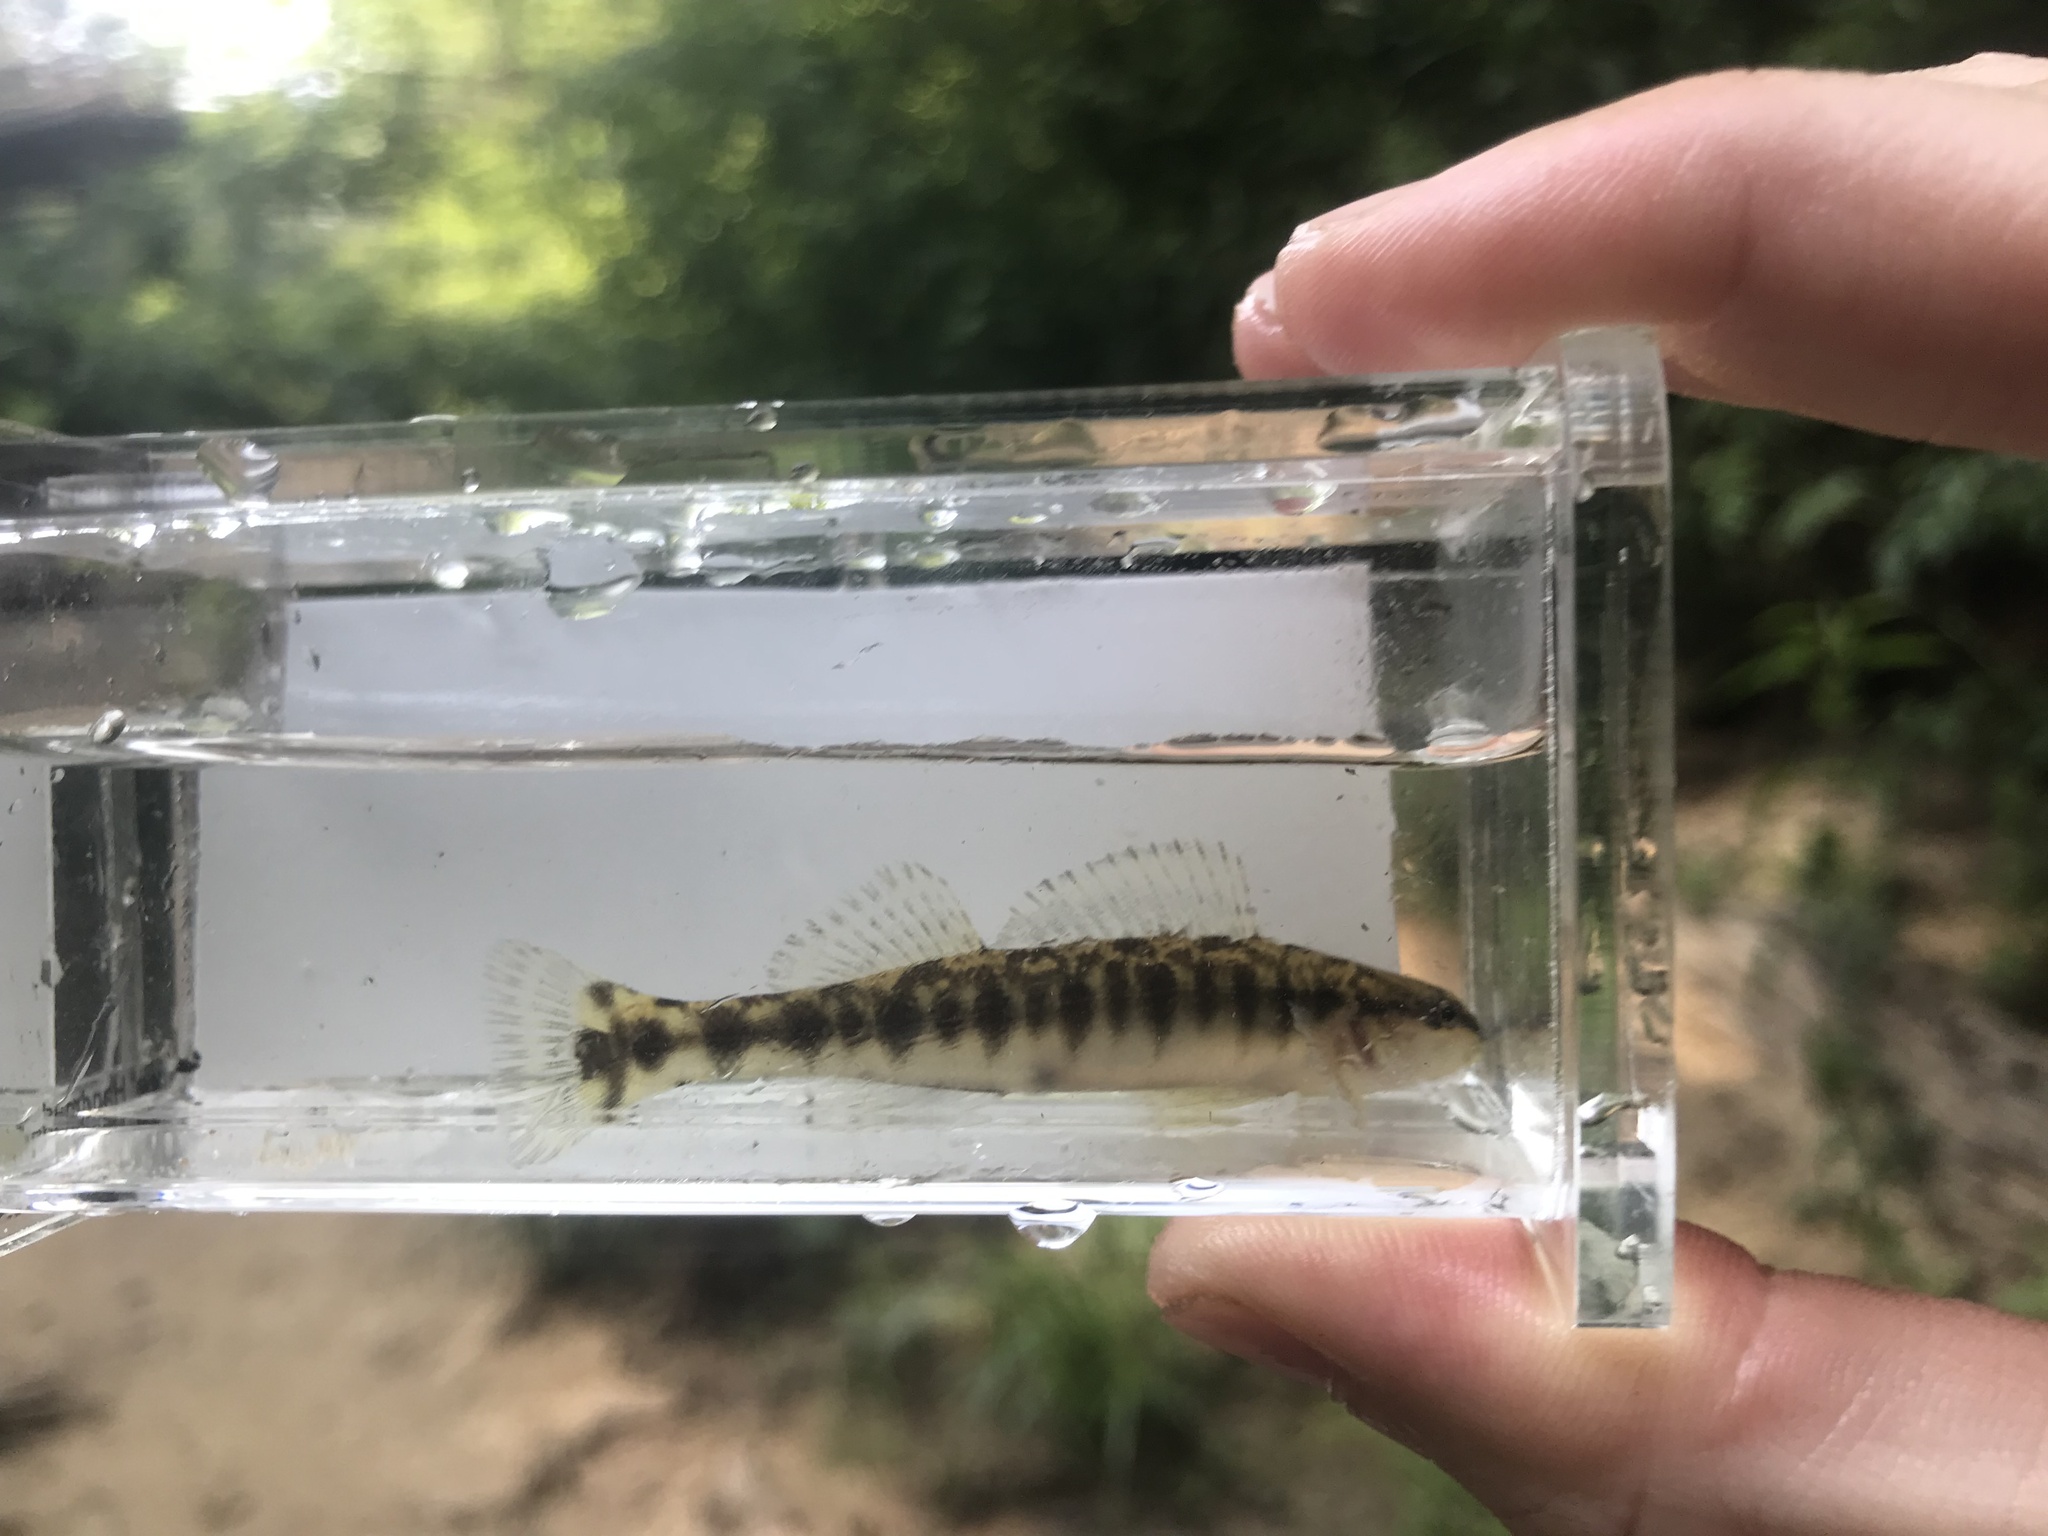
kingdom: Animalia
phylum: Chordata
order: Perciformes
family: Percidae
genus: Percina
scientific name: Percina nigrofasciata
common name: Blackbanded darter
